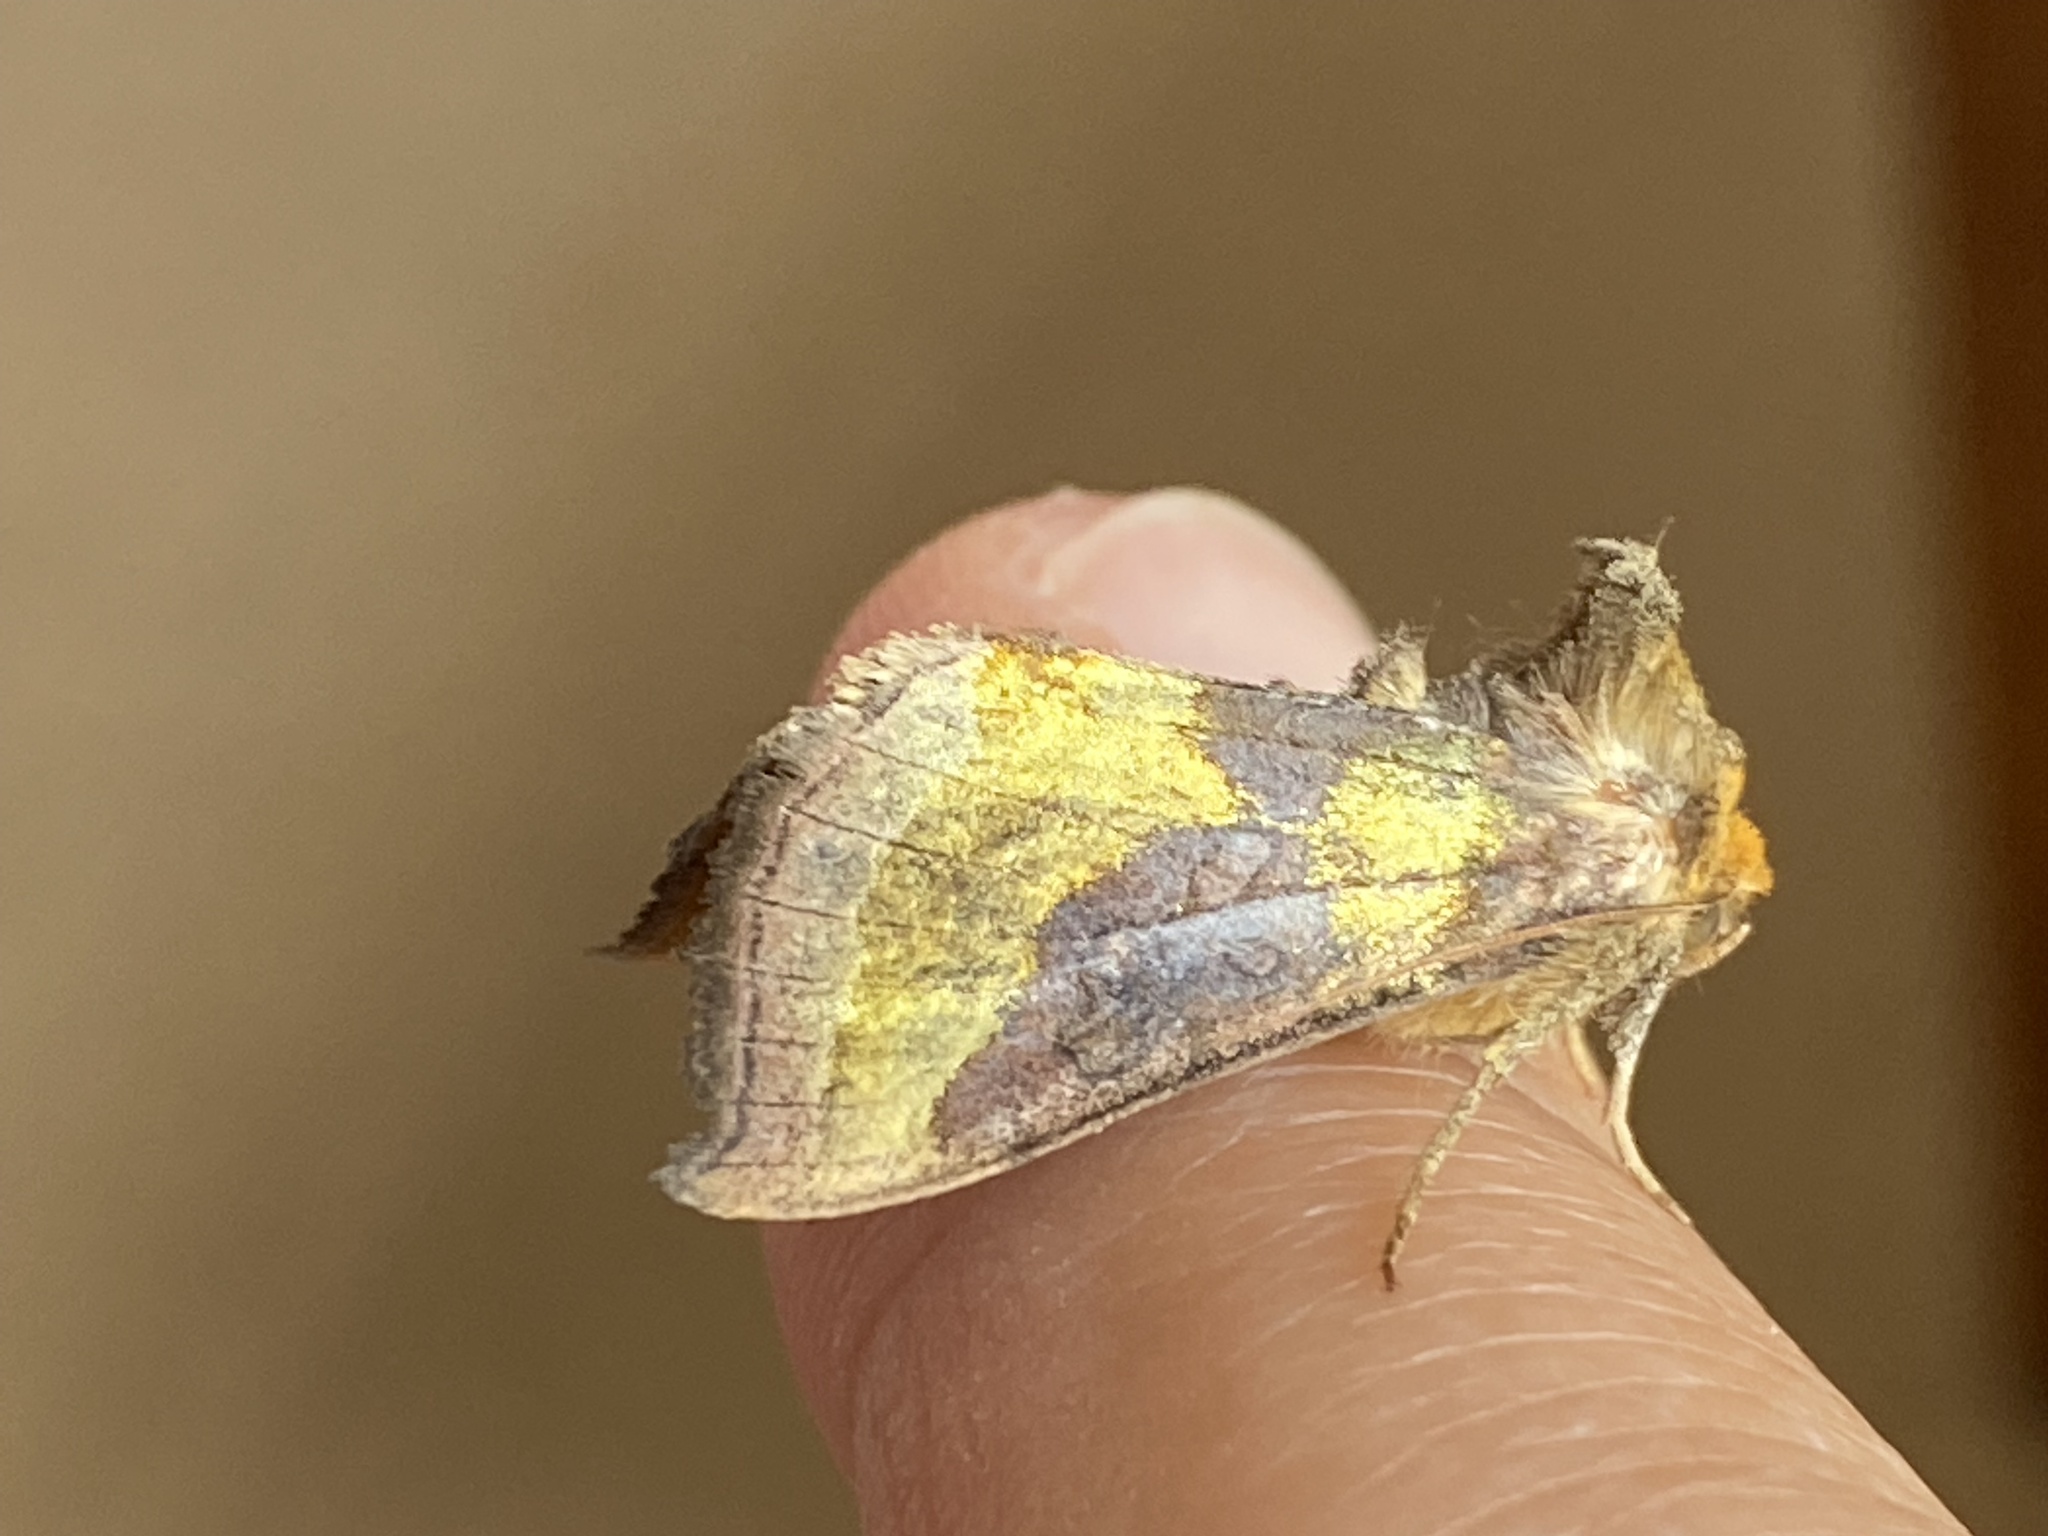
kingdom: Animalia
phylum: Arthropoda
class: Insecta
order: Lepidoptera
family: Noctuidae
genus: Diachrysia
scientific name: Diachrysia chrysitis
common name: Burnished brass
